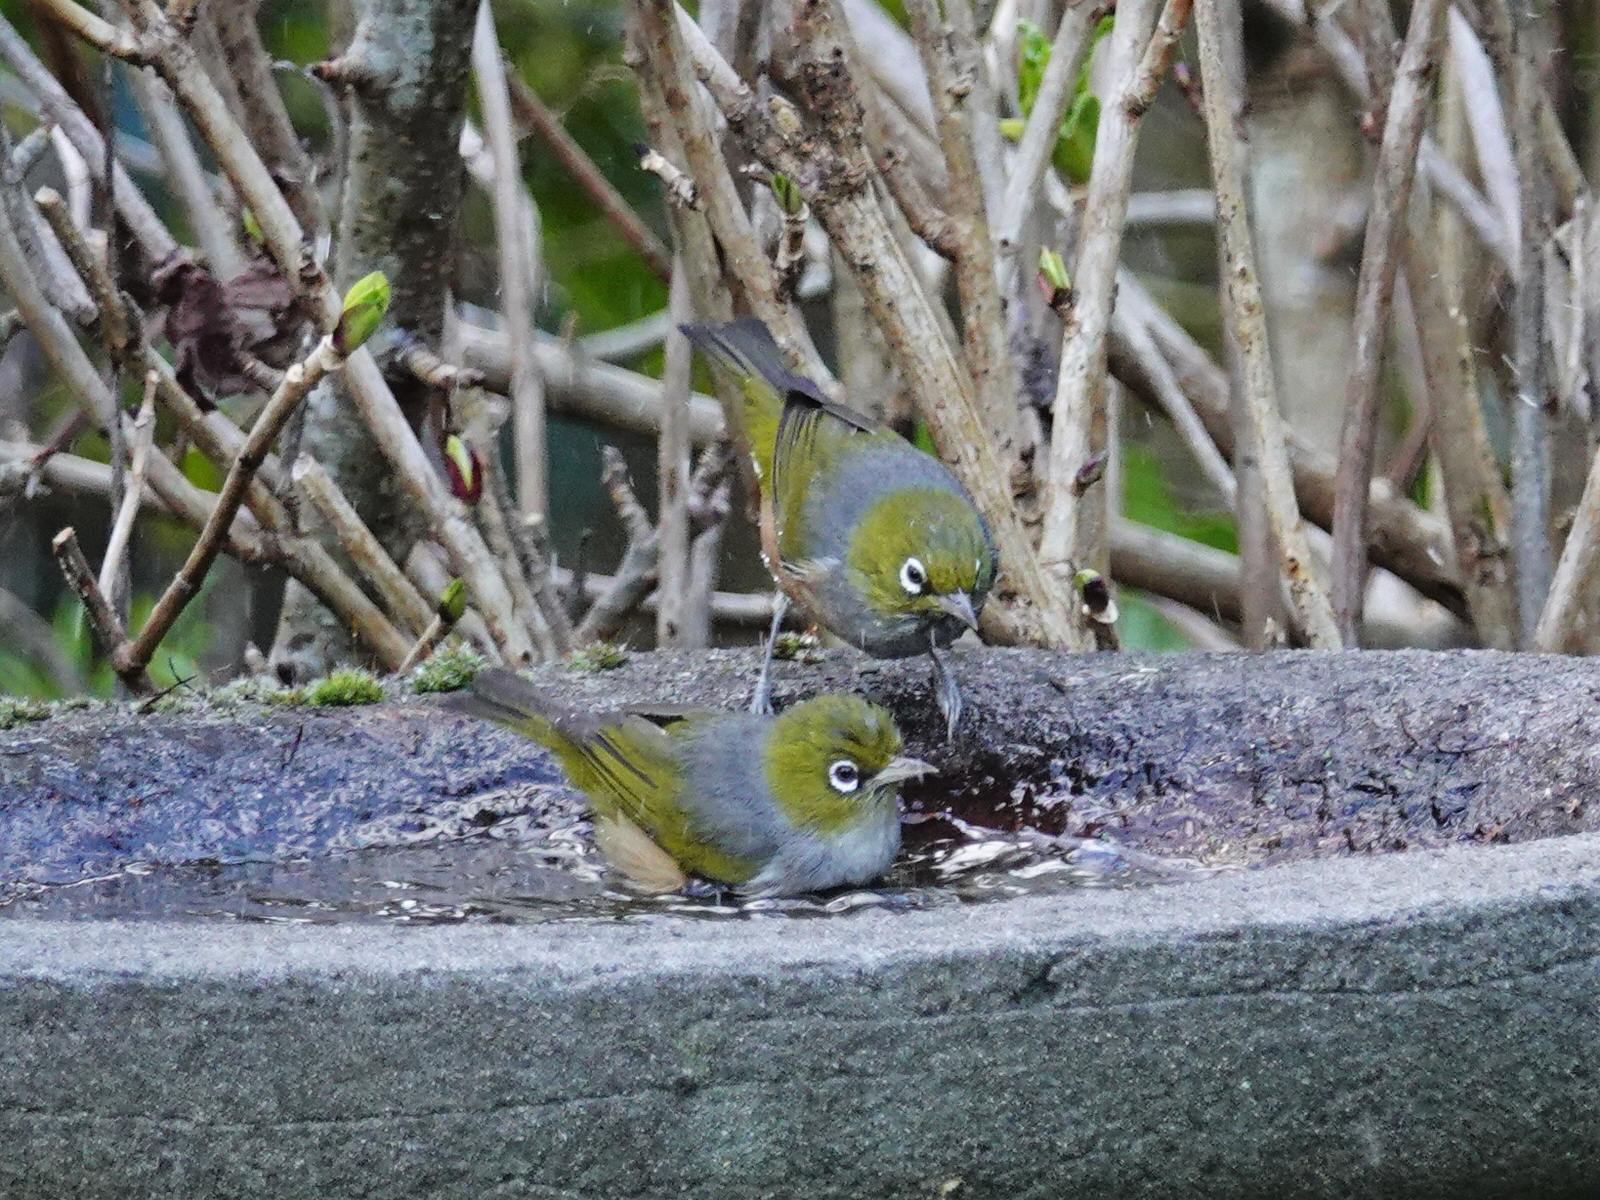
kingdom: Animalia
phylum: Chordata
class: Aves
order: Passeriformes
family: Zosteropidae
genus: Zosterops
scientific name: Zosterops lateralis
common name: Silvereye
